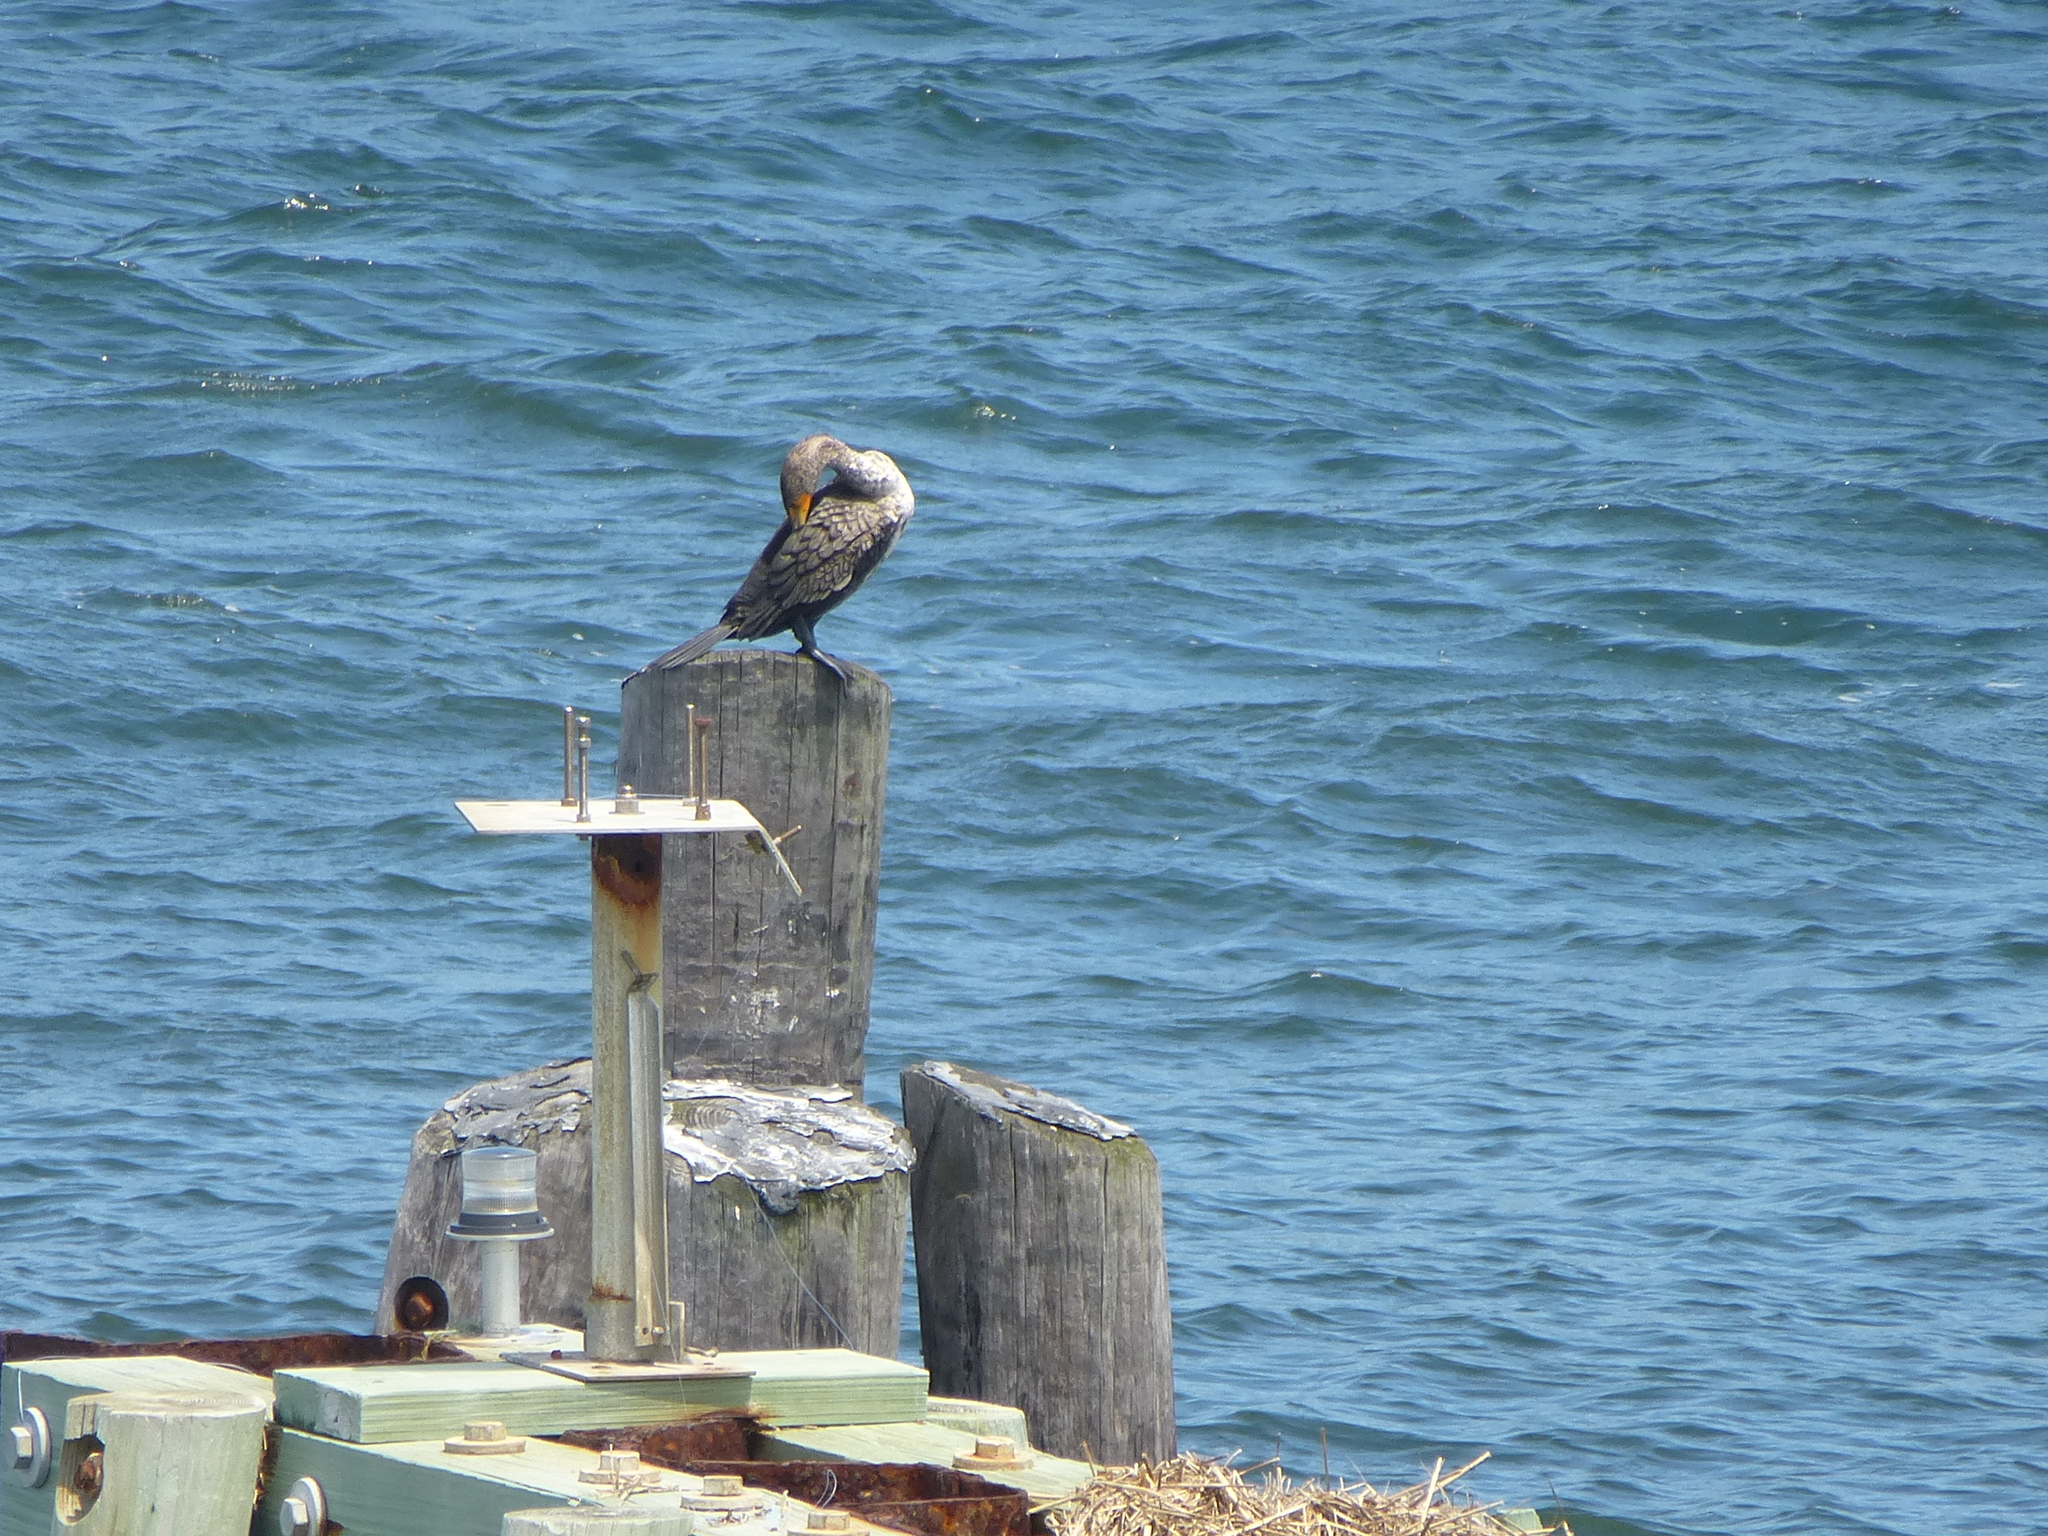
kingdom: Animalia
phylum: Chordata
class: Aves
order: Suliformes
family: Phalacrocoracidae
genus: Phalacrocorax
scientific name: Phalacrocorax auritus
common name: Double-crested cormorant
